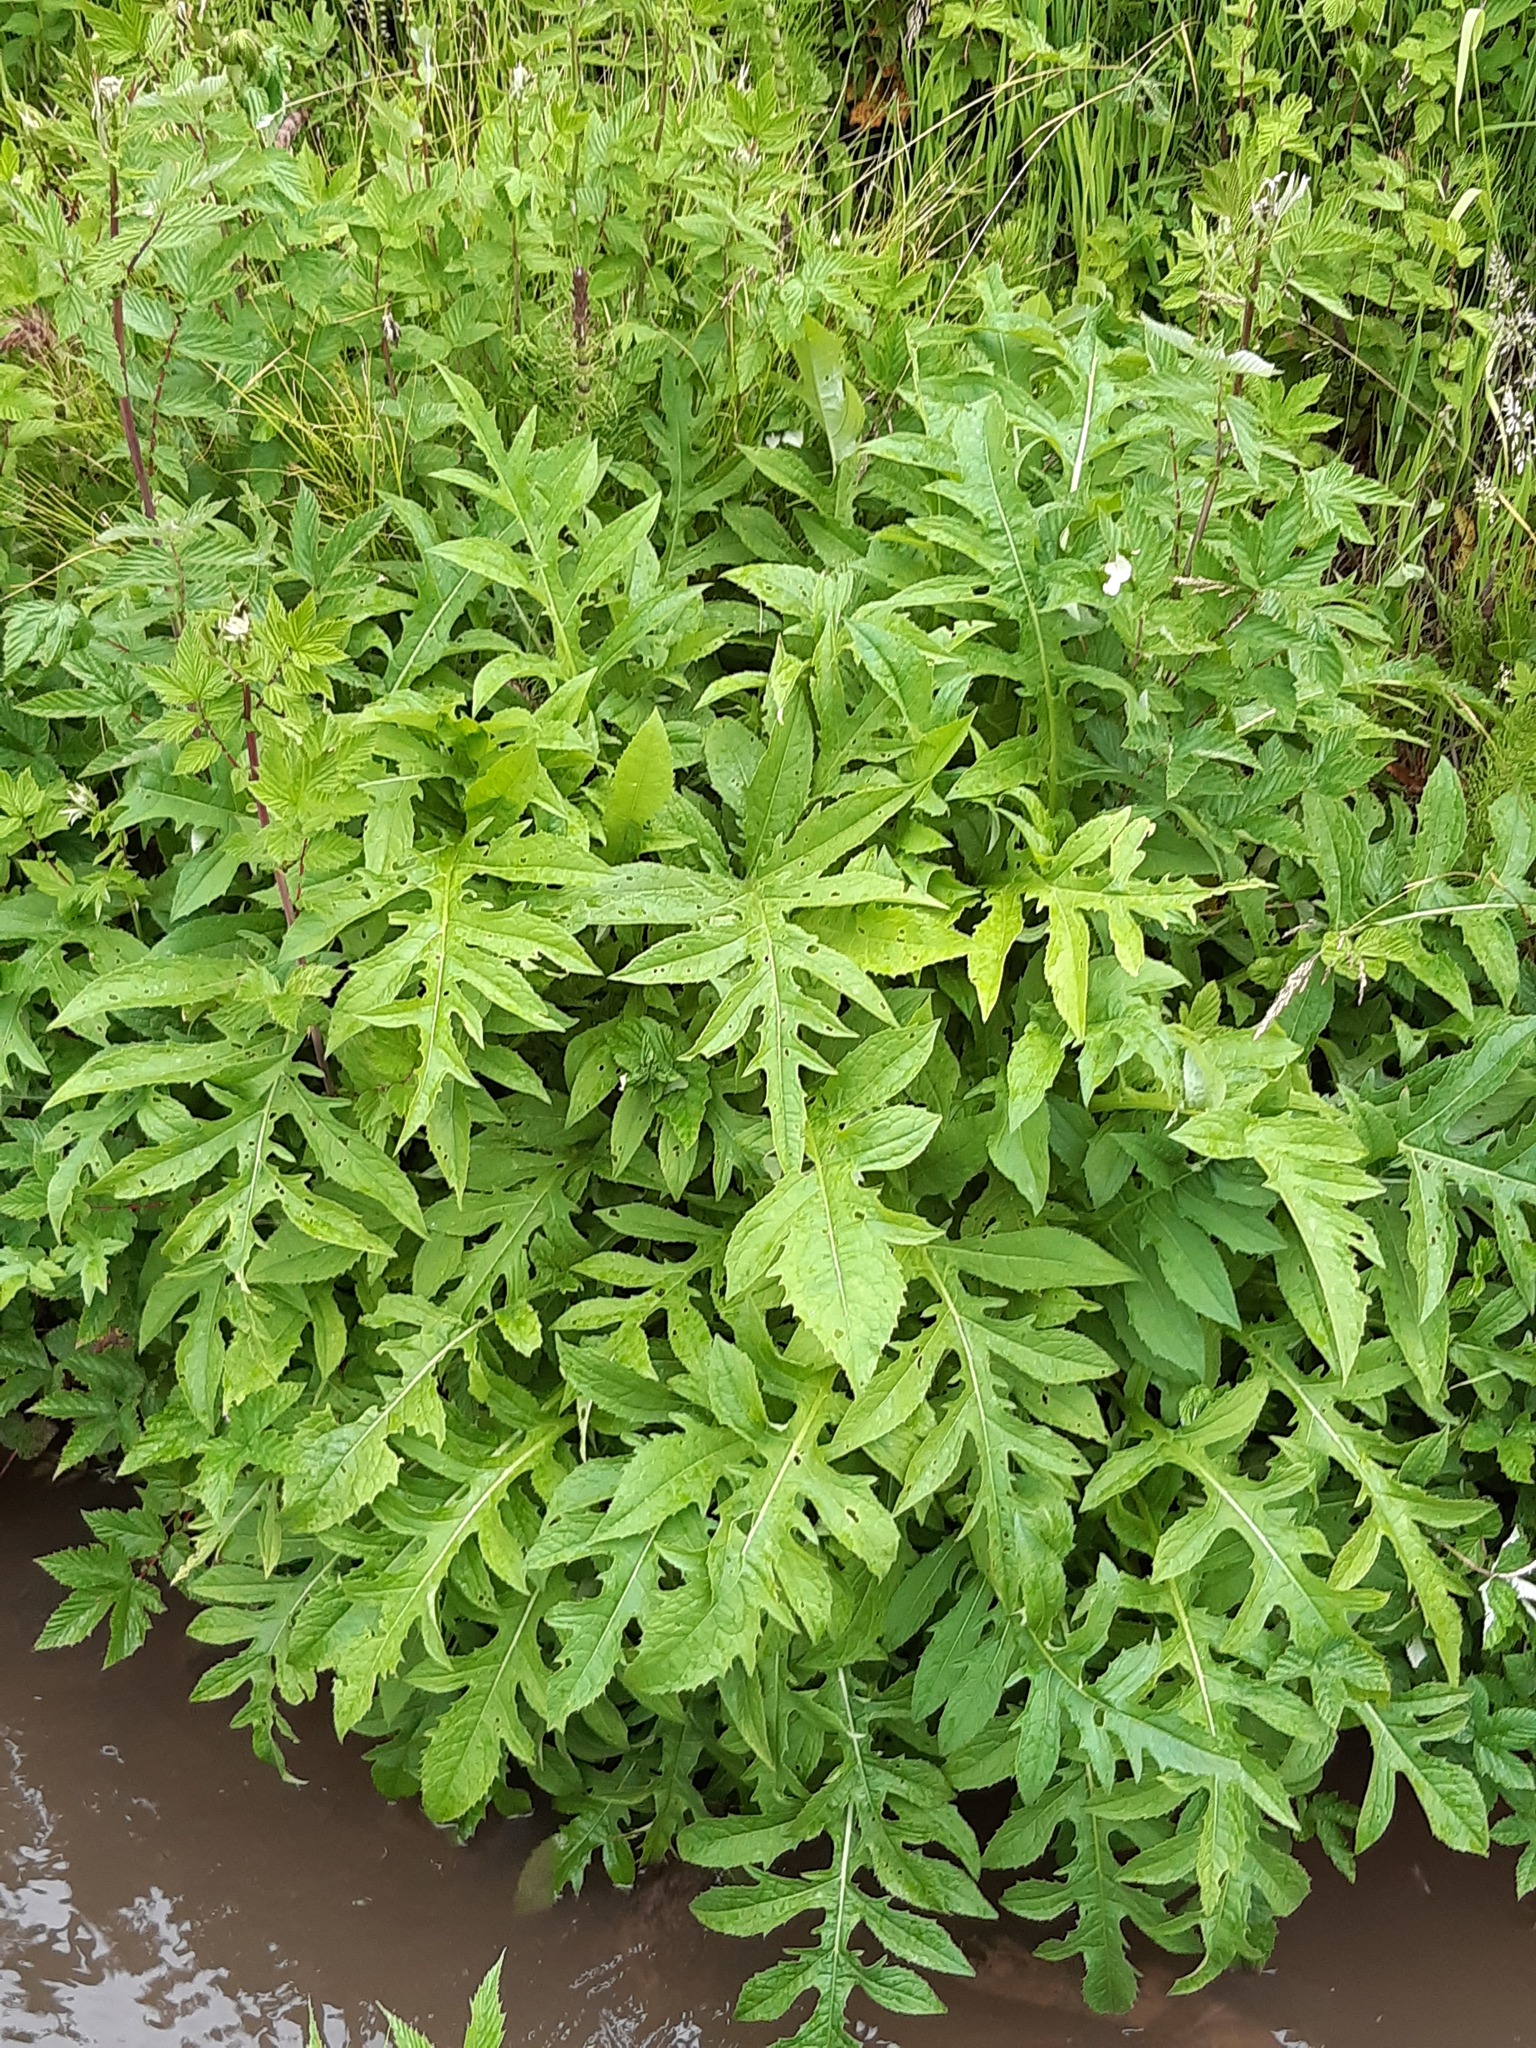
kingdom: Plantae
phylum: Tracheophyta
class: Magnoliopsida
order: Asterales
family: Asteraceae
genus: Cirsium
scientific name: Cirsium oleraceum
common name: Cabbage thistle
